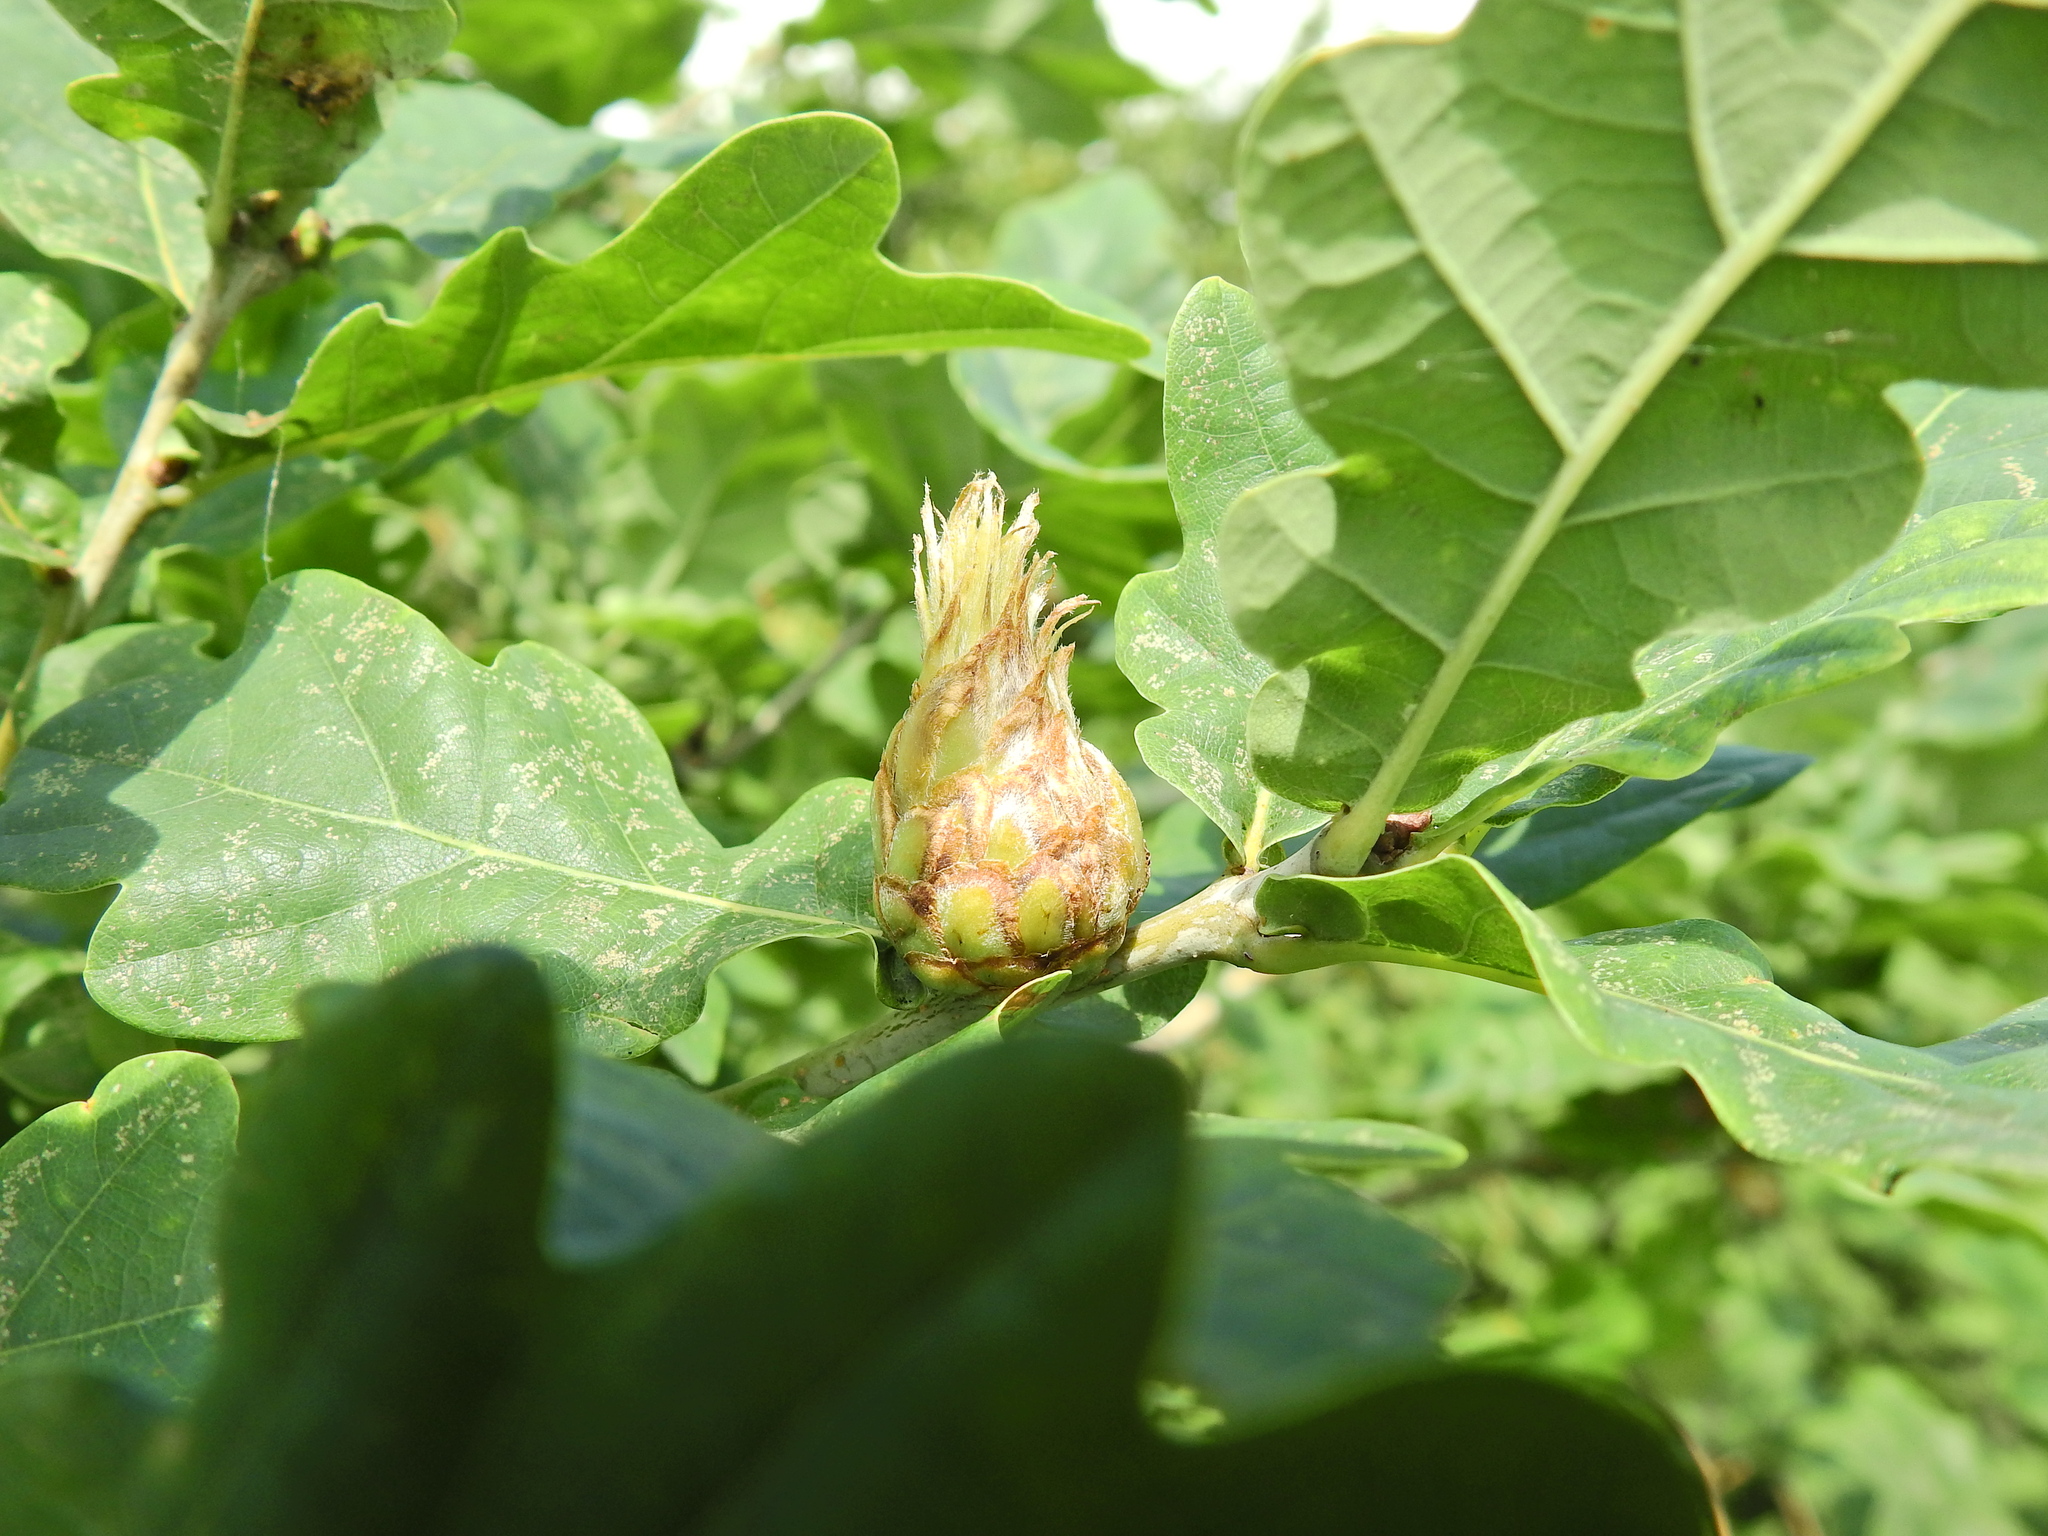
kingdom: Animalia
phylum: Arthropoda
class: Insecta
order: Hymenoptera
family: Cynipidae
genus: Andricus
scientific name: Andricus foecundatrix
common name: Artichoke gall
